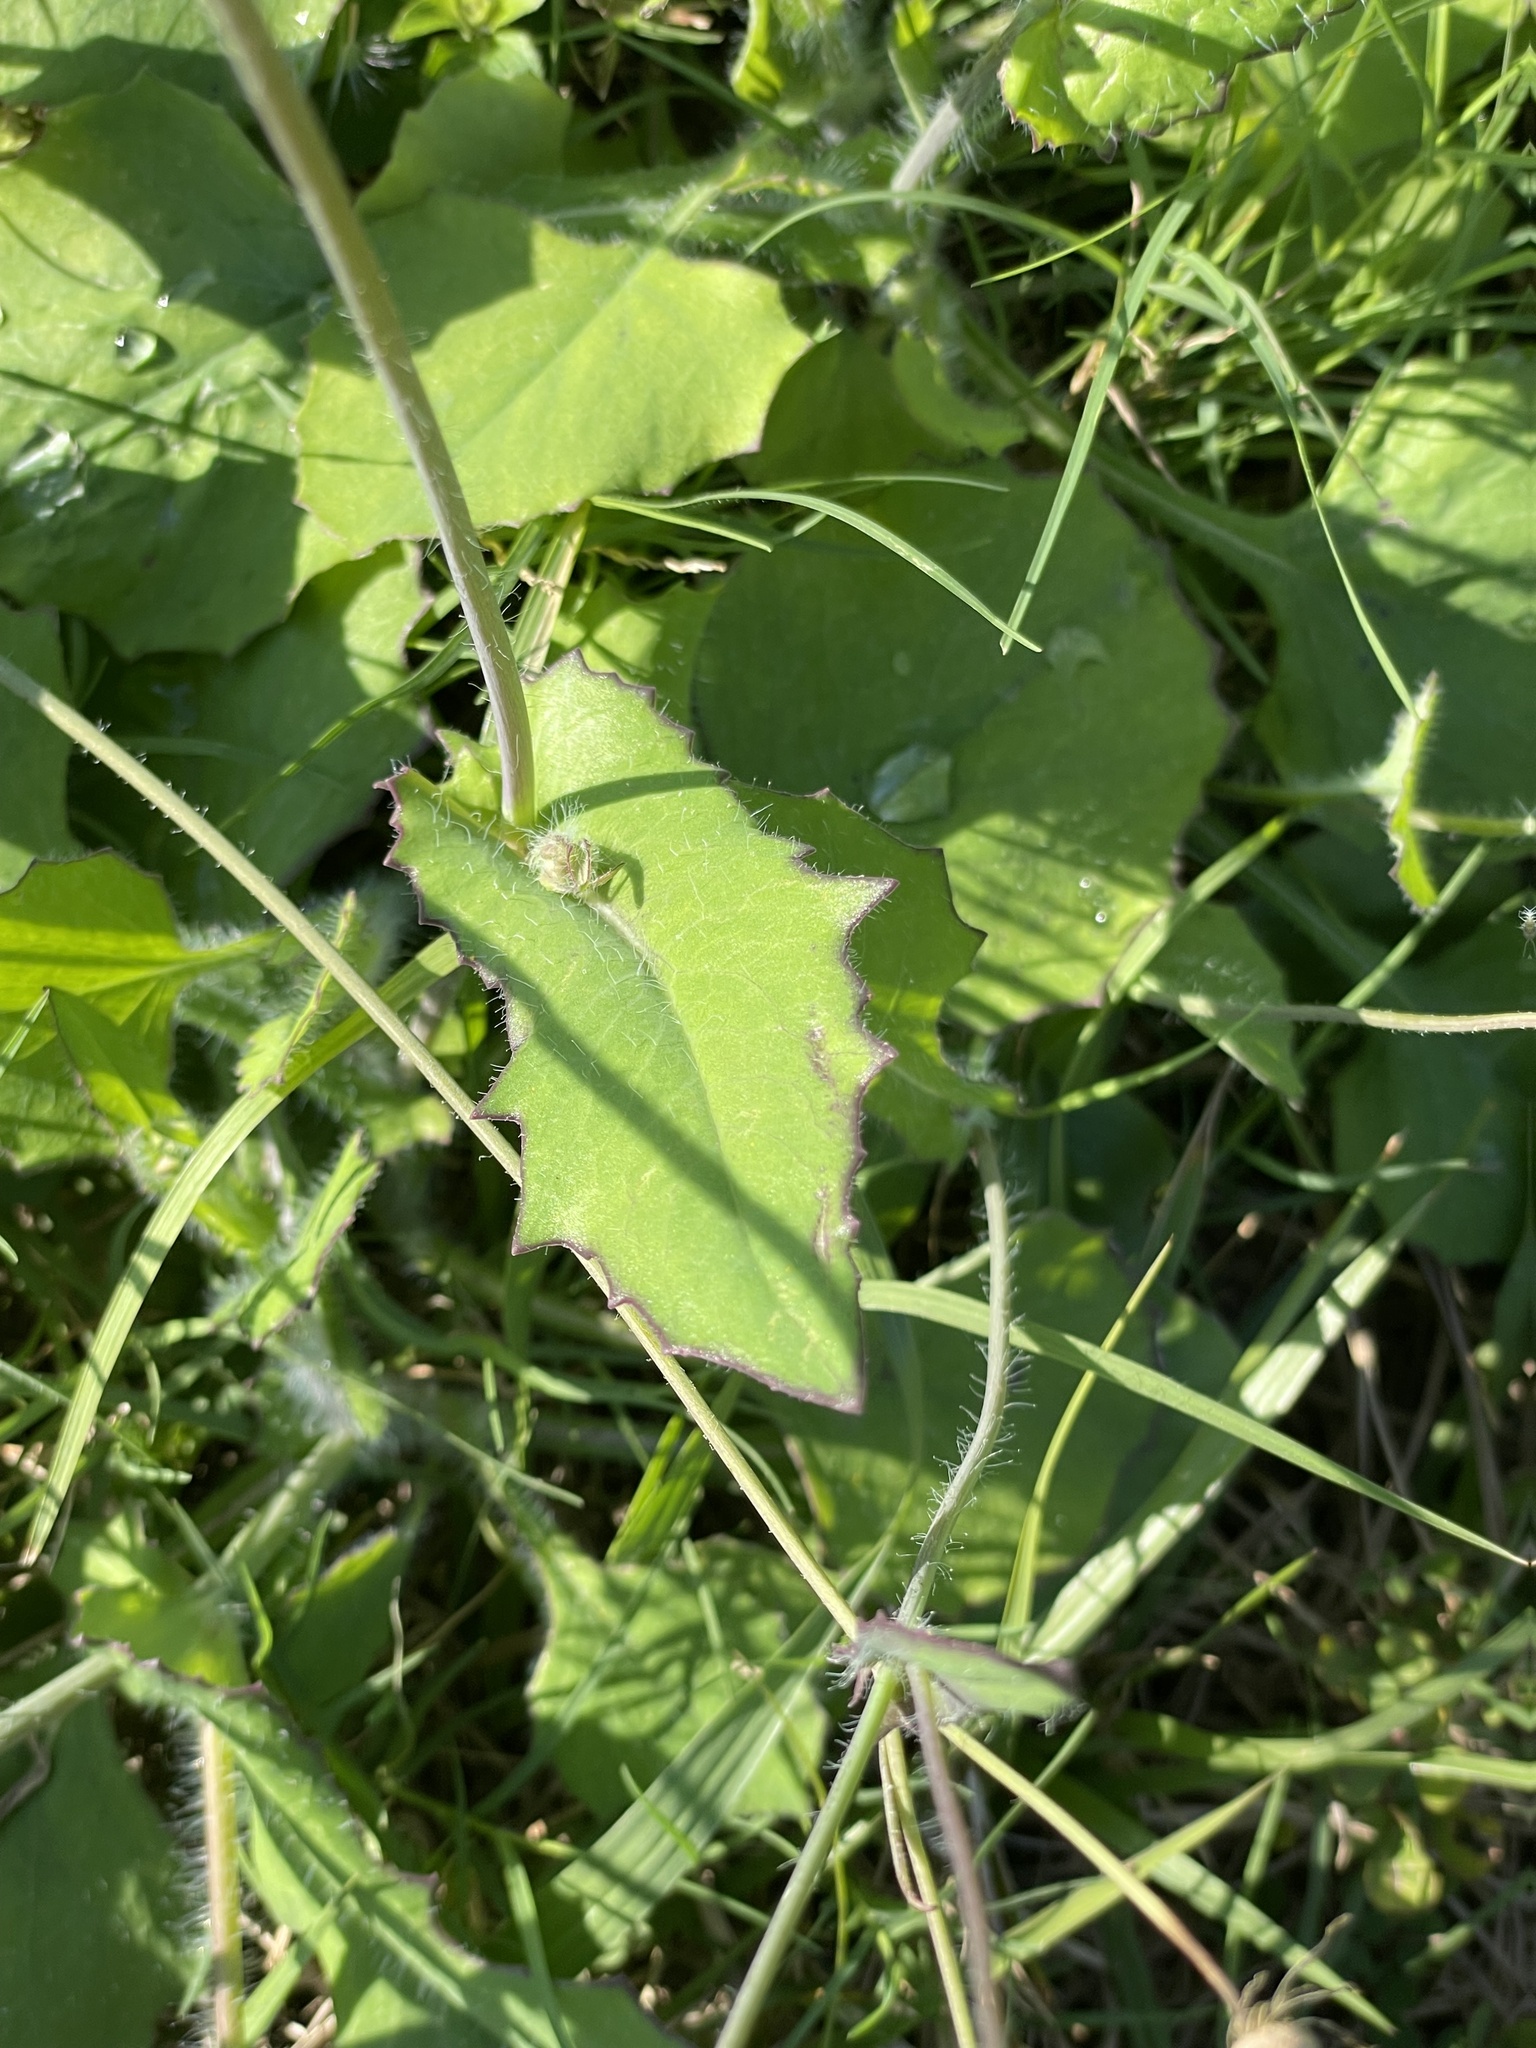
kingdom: Plantae
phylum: Tracheophyta
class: Magnoliopsida
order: Asterales
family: Asteraceae
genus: Emilia
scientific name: Emilia fosbergii
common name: Florida tasselflower
